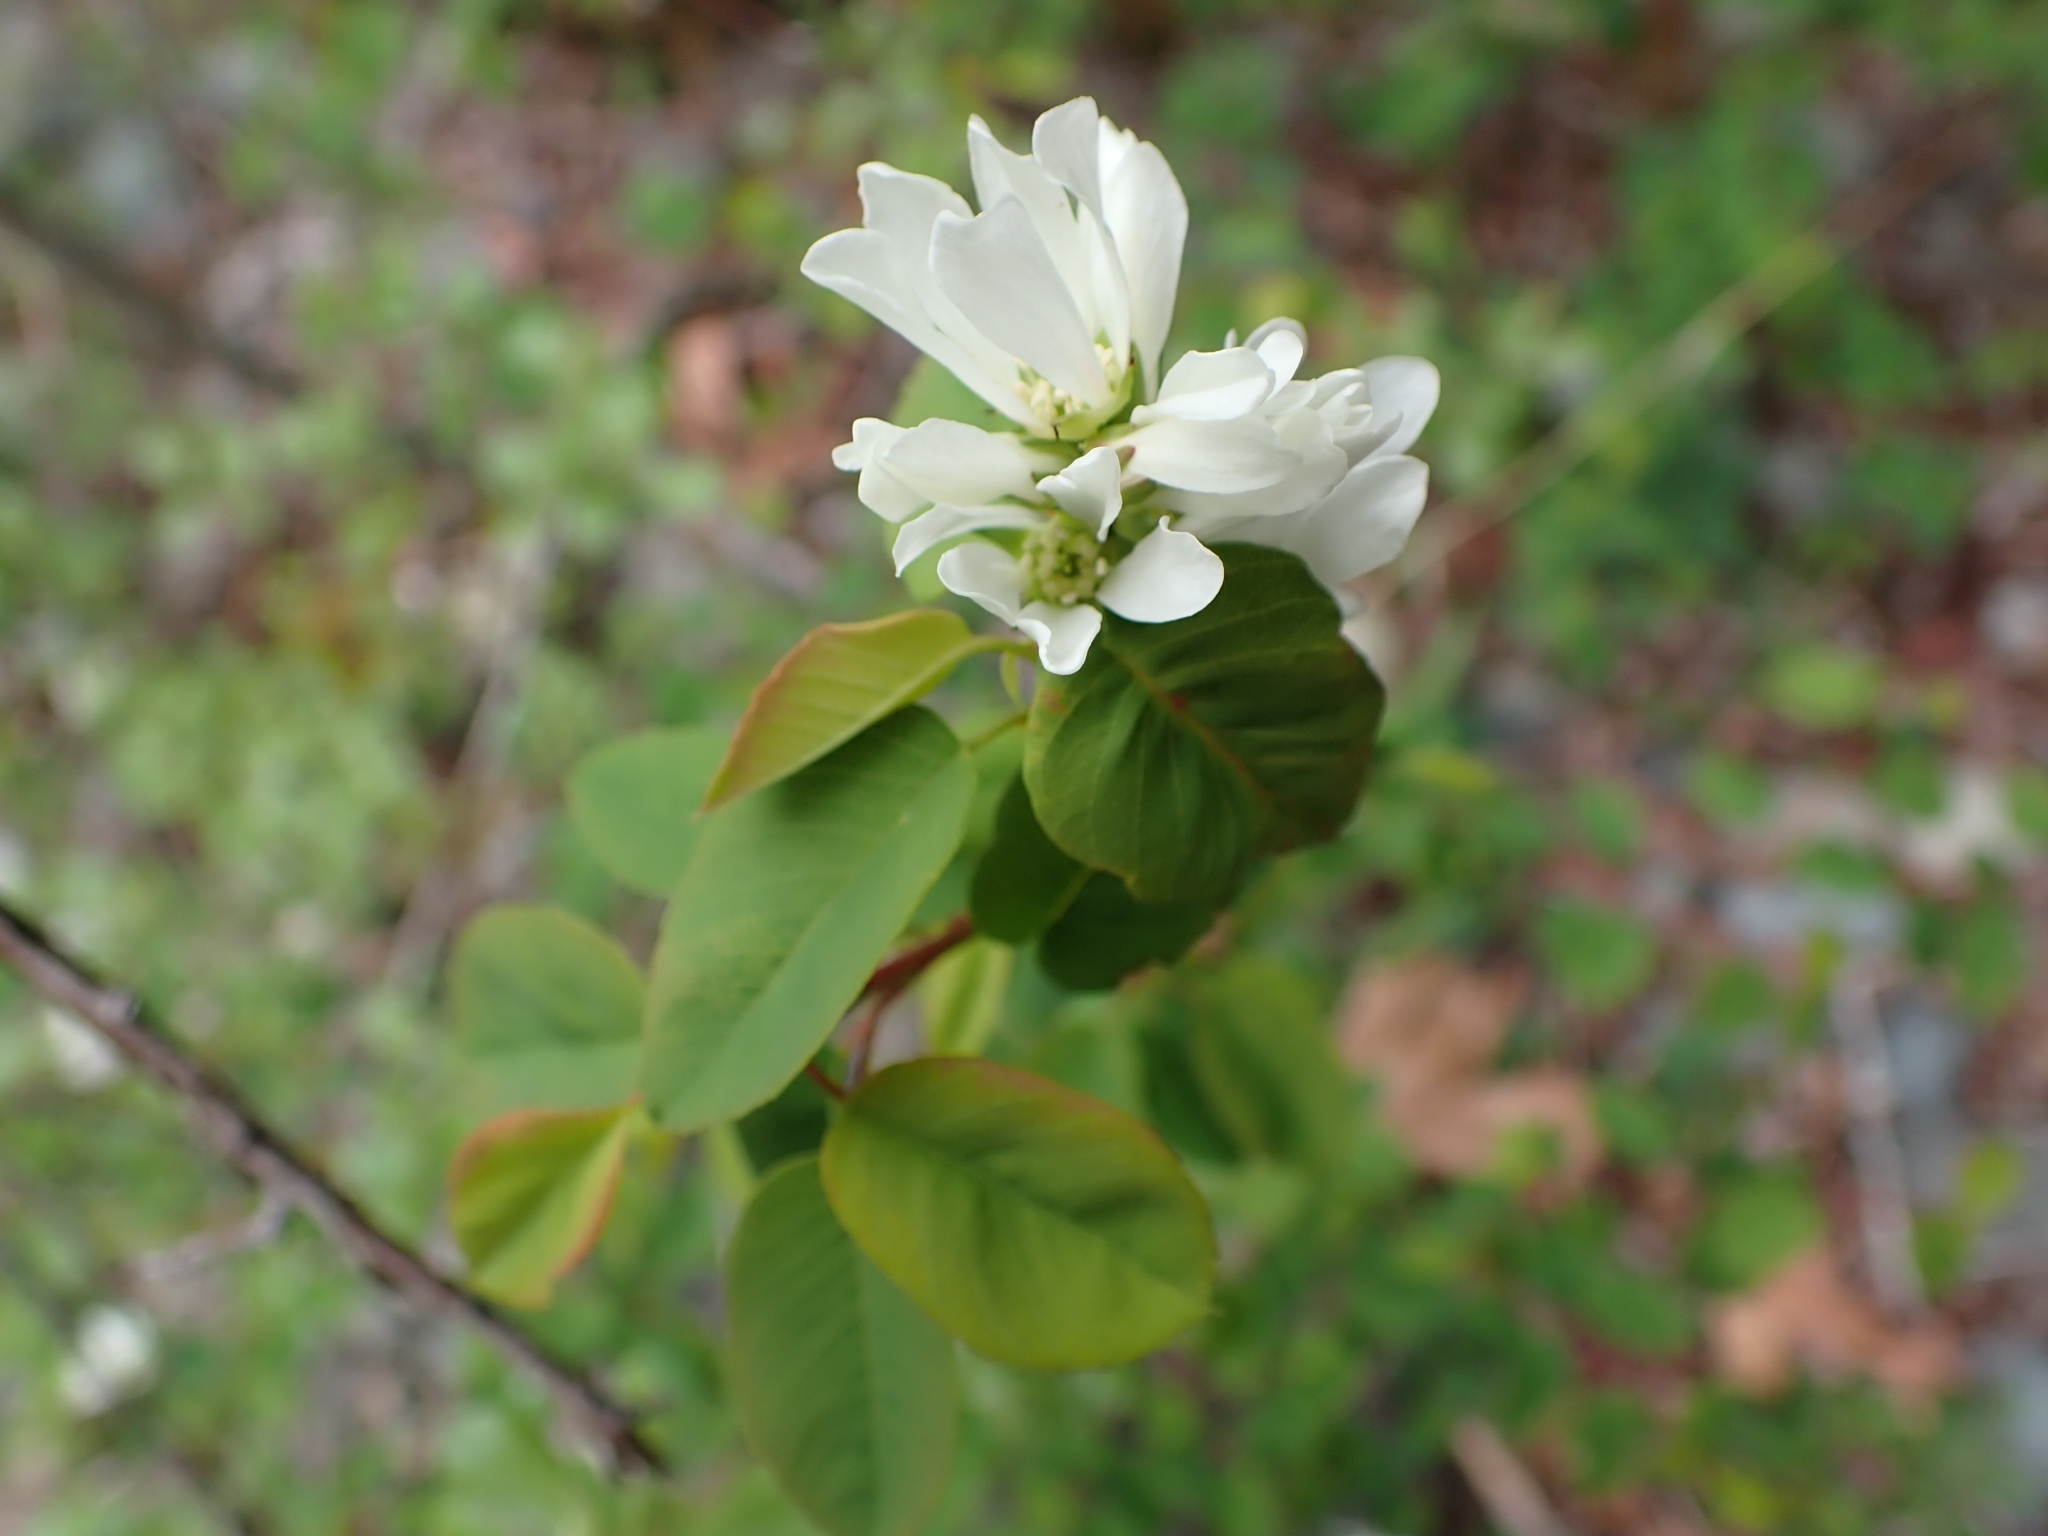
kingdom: Plantae
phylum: Tracheophyta
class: Magnoliopsida
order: Rosales
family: Rosaceae
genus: Amelanchier
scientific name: Amelanchier alnifolia
